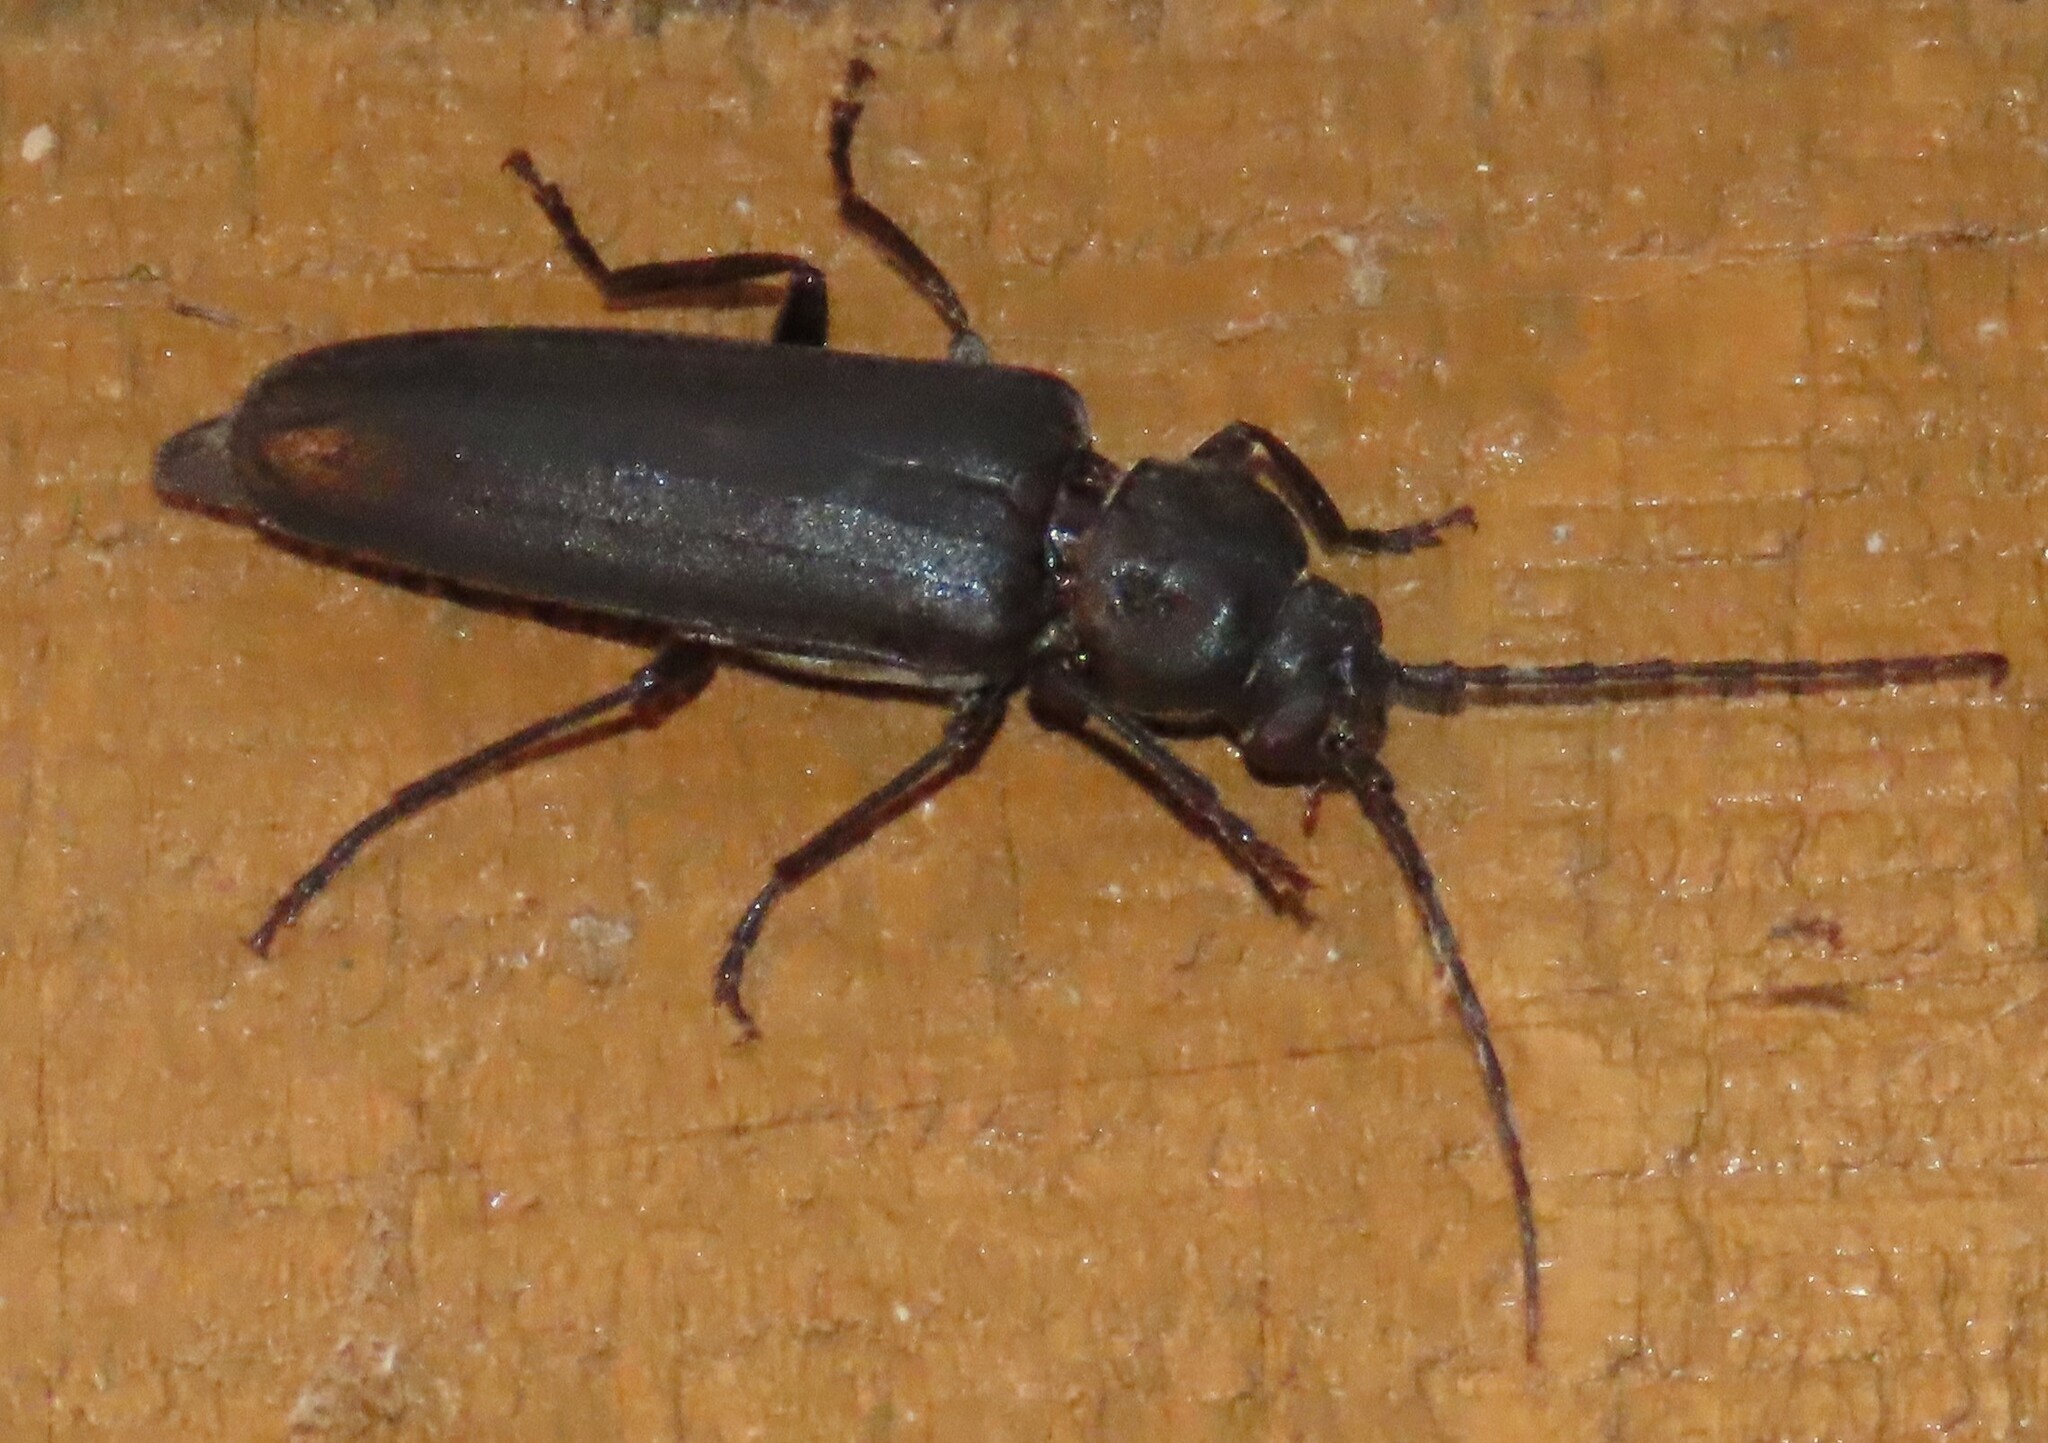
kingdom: Animalia
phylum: Arthropoda
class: Insecta
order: Coleoptera
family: Cerambycidae
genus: Arhopalus
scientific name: Arhopalus ferus
